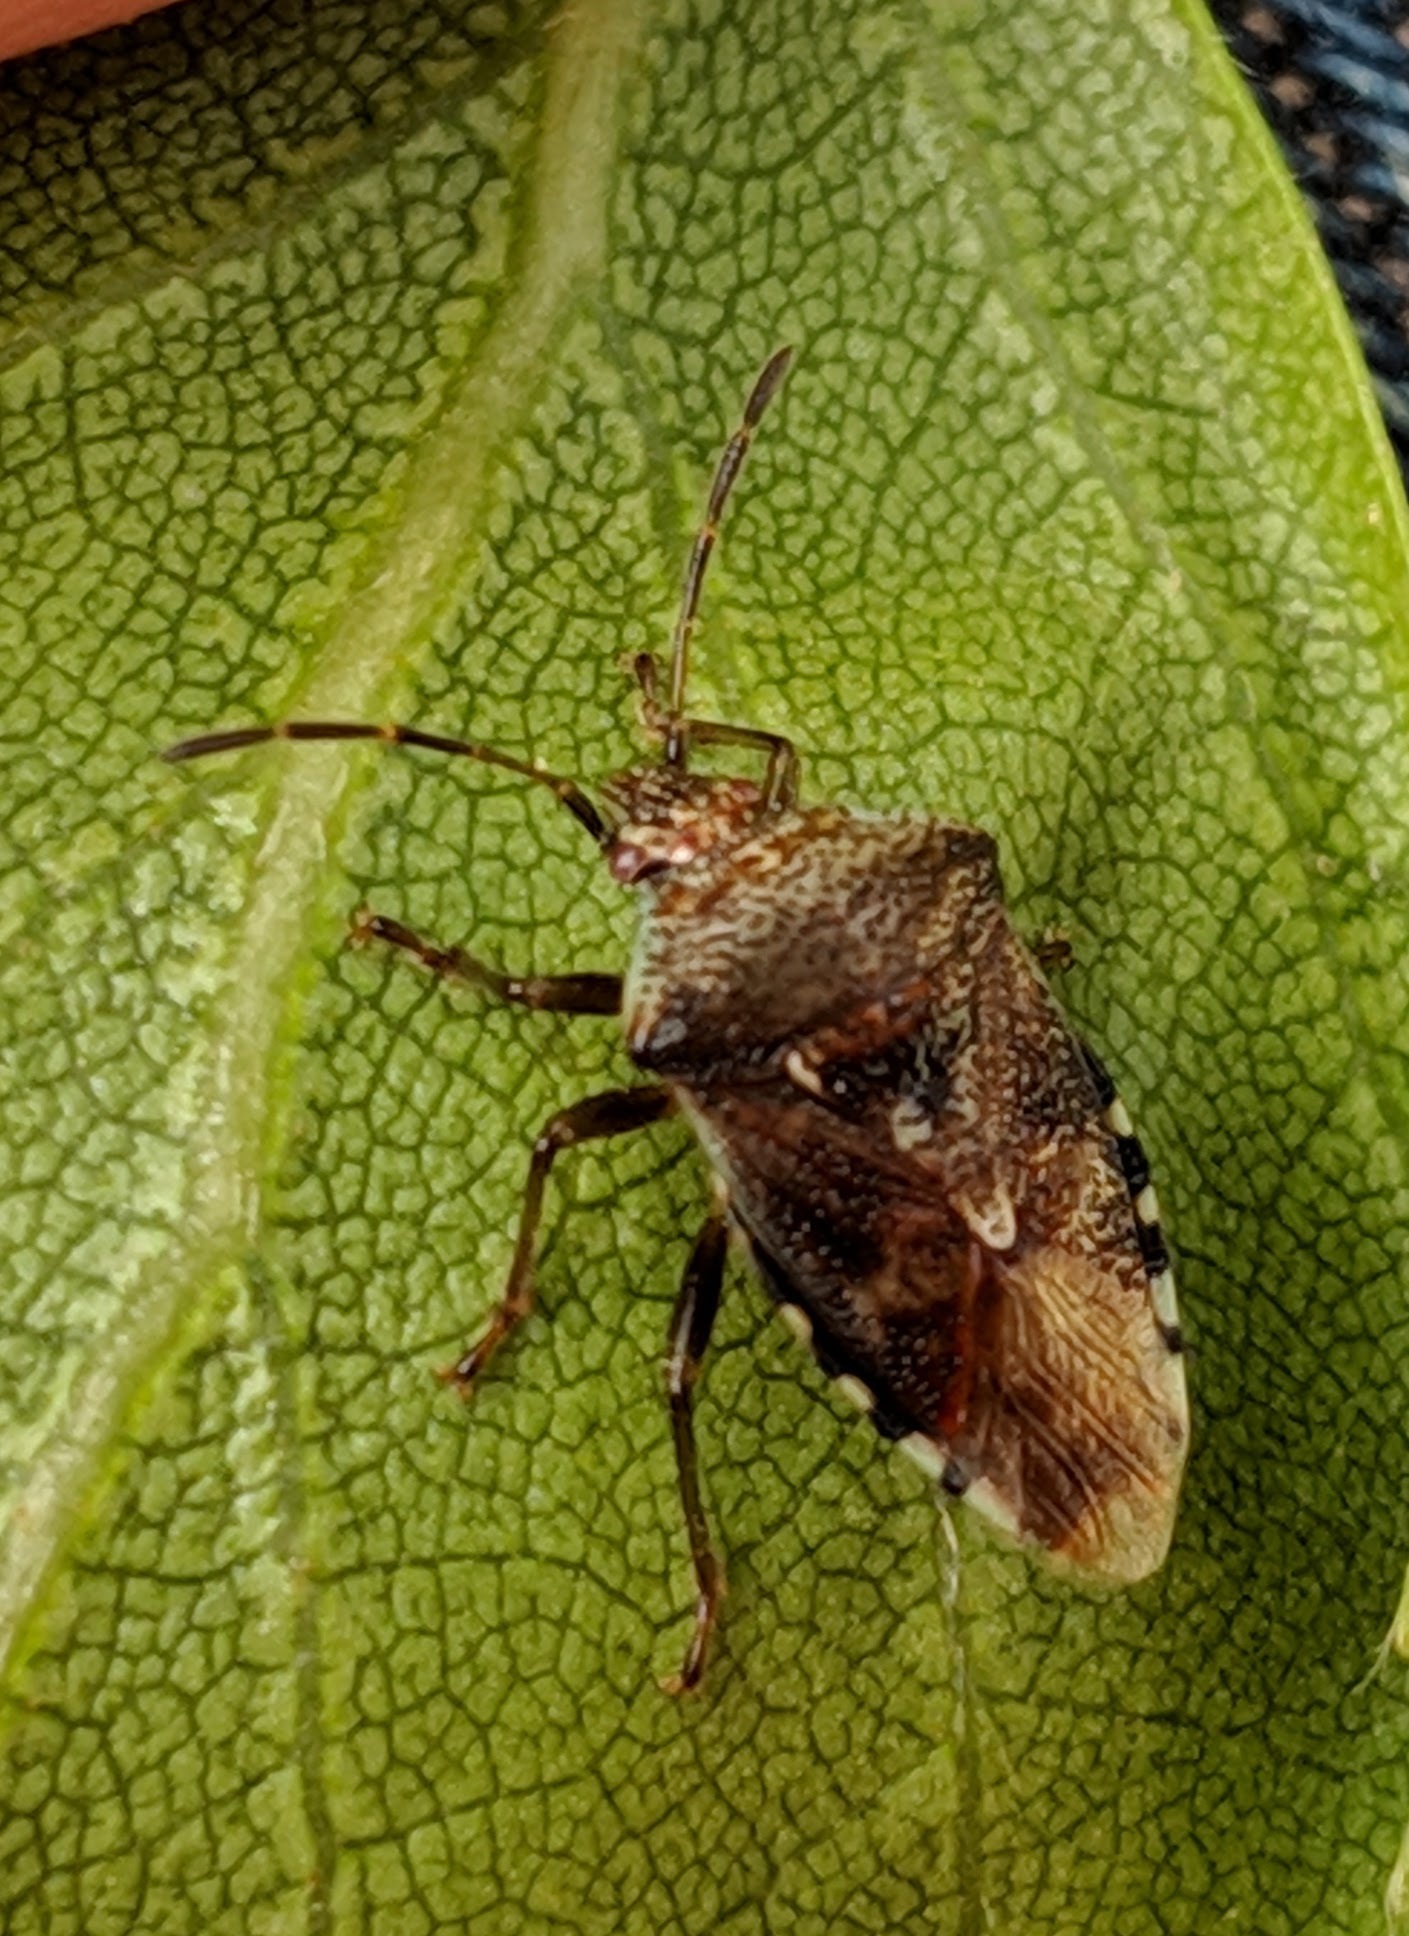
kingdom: Animalia
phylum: Arthropoda
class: Insecta
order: Hemiptera
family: Acanthosomatidae
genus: Elasmucha
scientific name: Elasmucha grisea
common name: Parent bug
